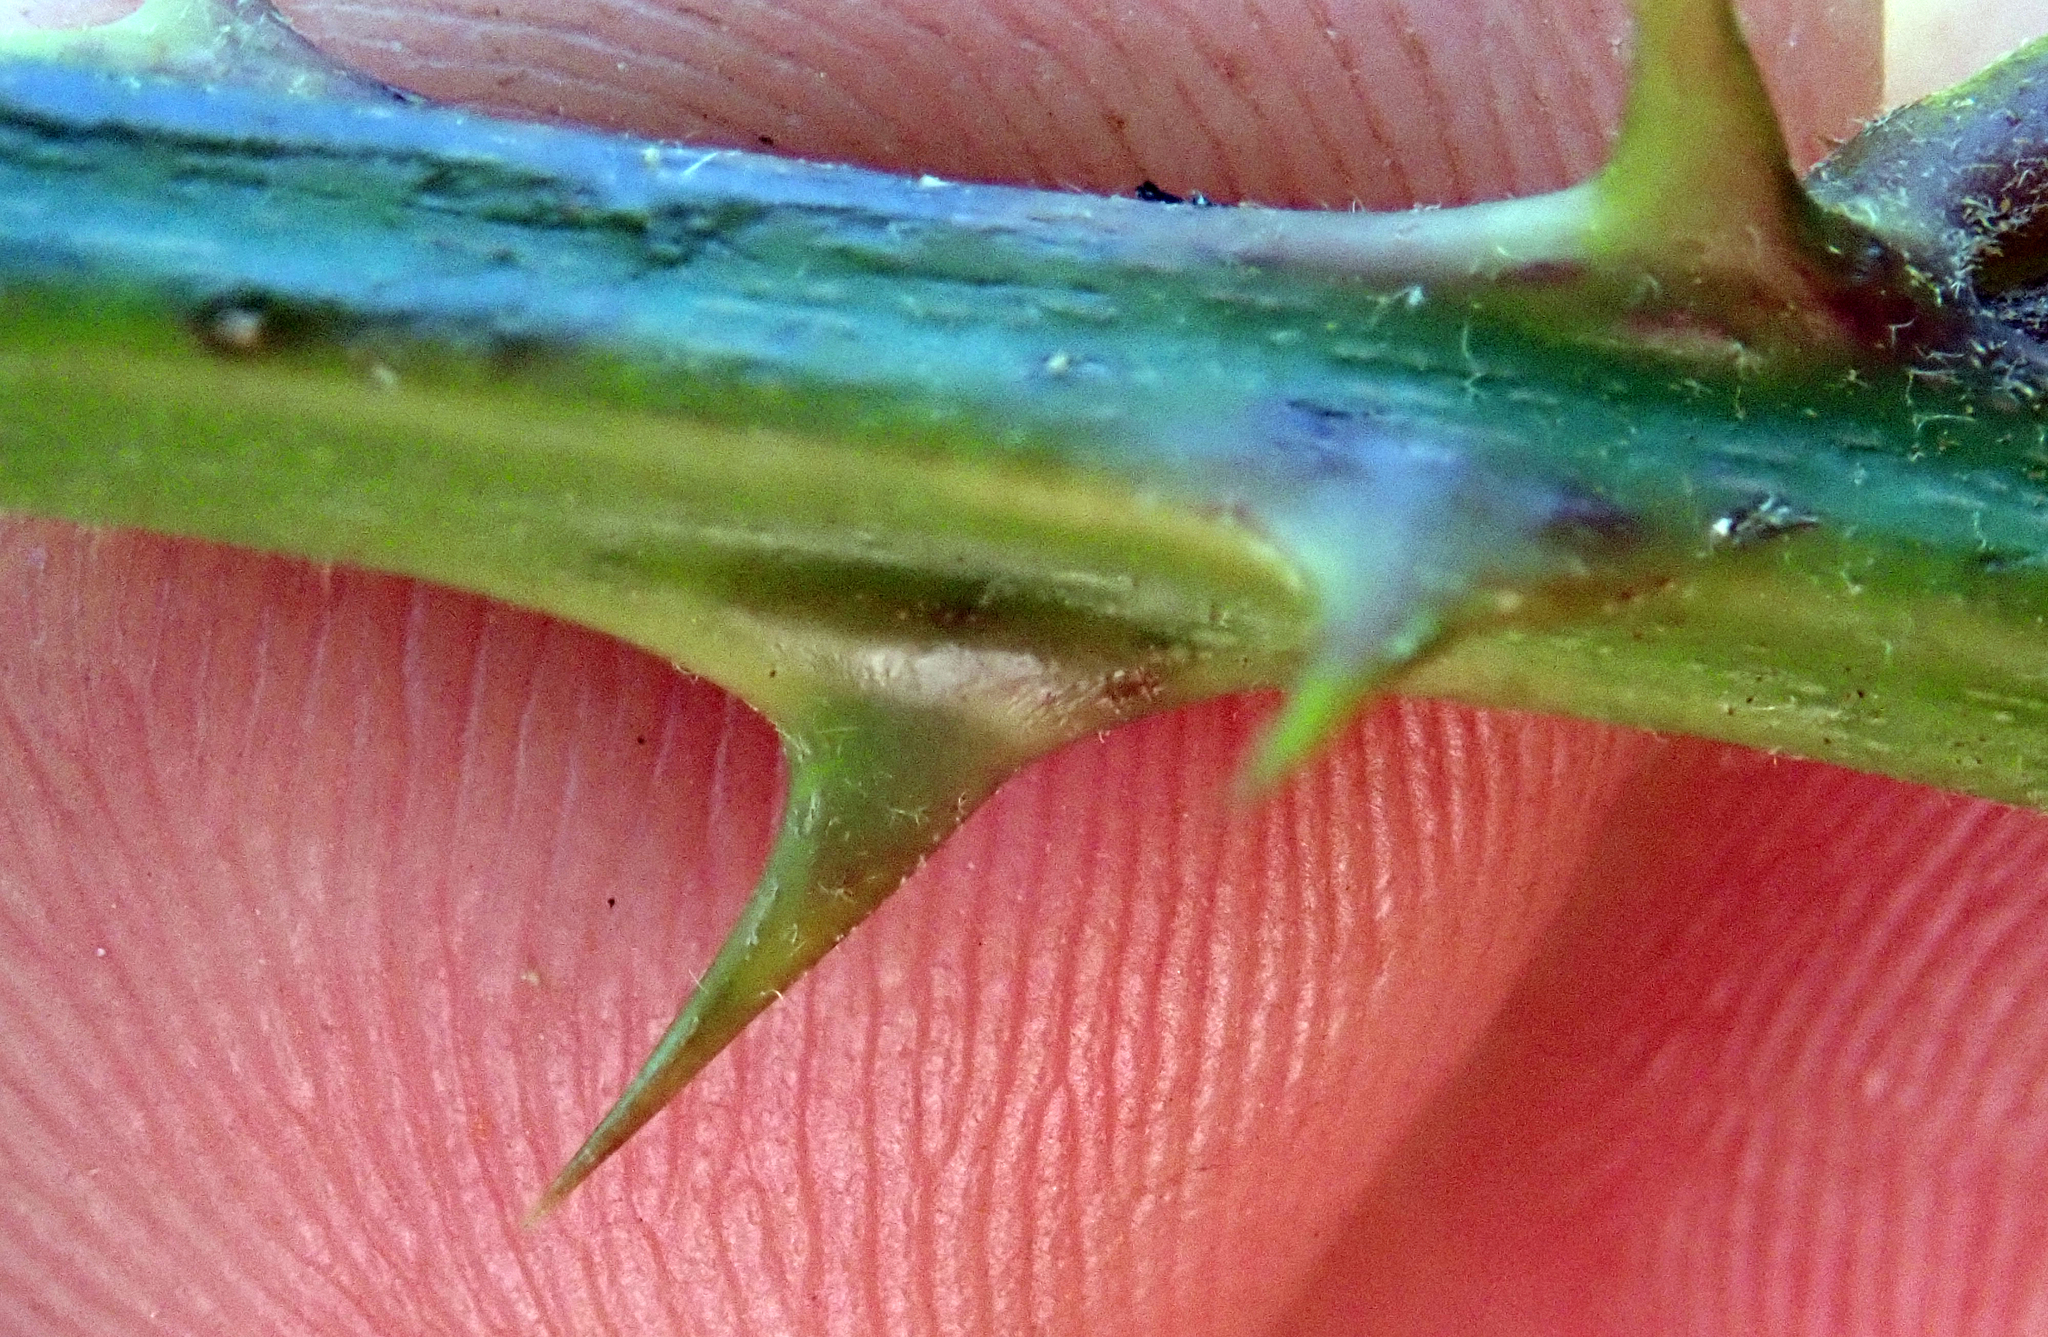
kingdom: Plantae
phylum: Tracheophyta
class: Magnoliopsida
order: Rosales
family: Rosaceae
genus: Rubus
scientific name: Rubus
